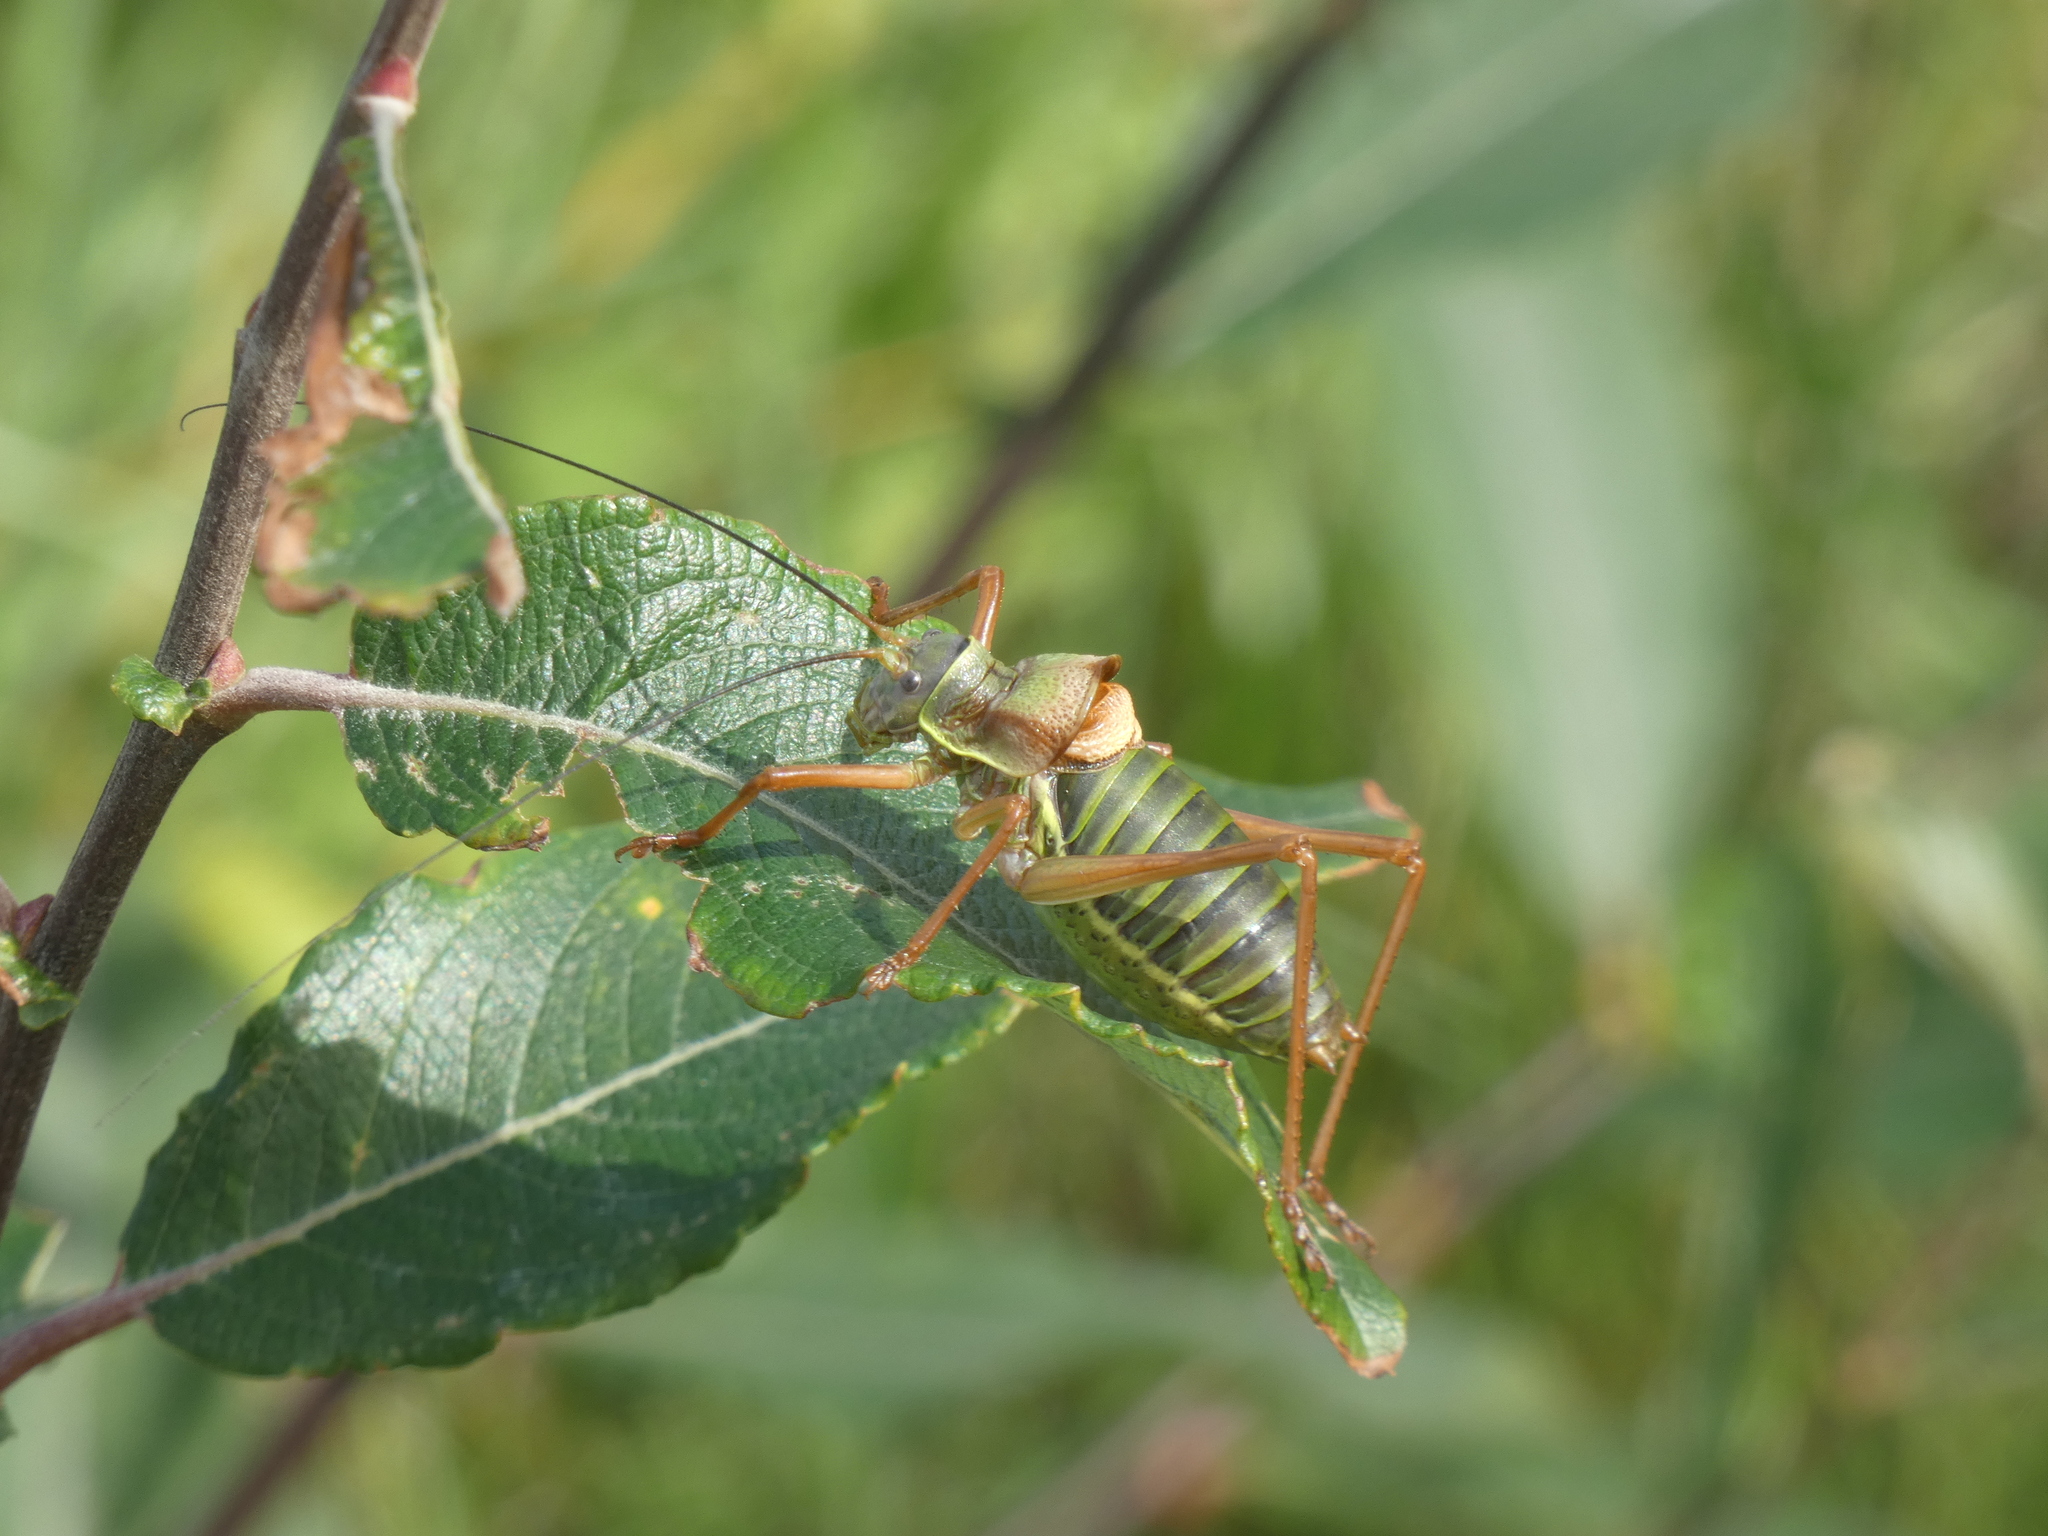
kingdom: Animalia
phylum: Arthropoda
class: Insecta
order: Orthoptera
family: Tettigoniidae
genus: Ephippiger
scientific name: Ephippiger diurnus
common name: Western saddle bush-cricket
